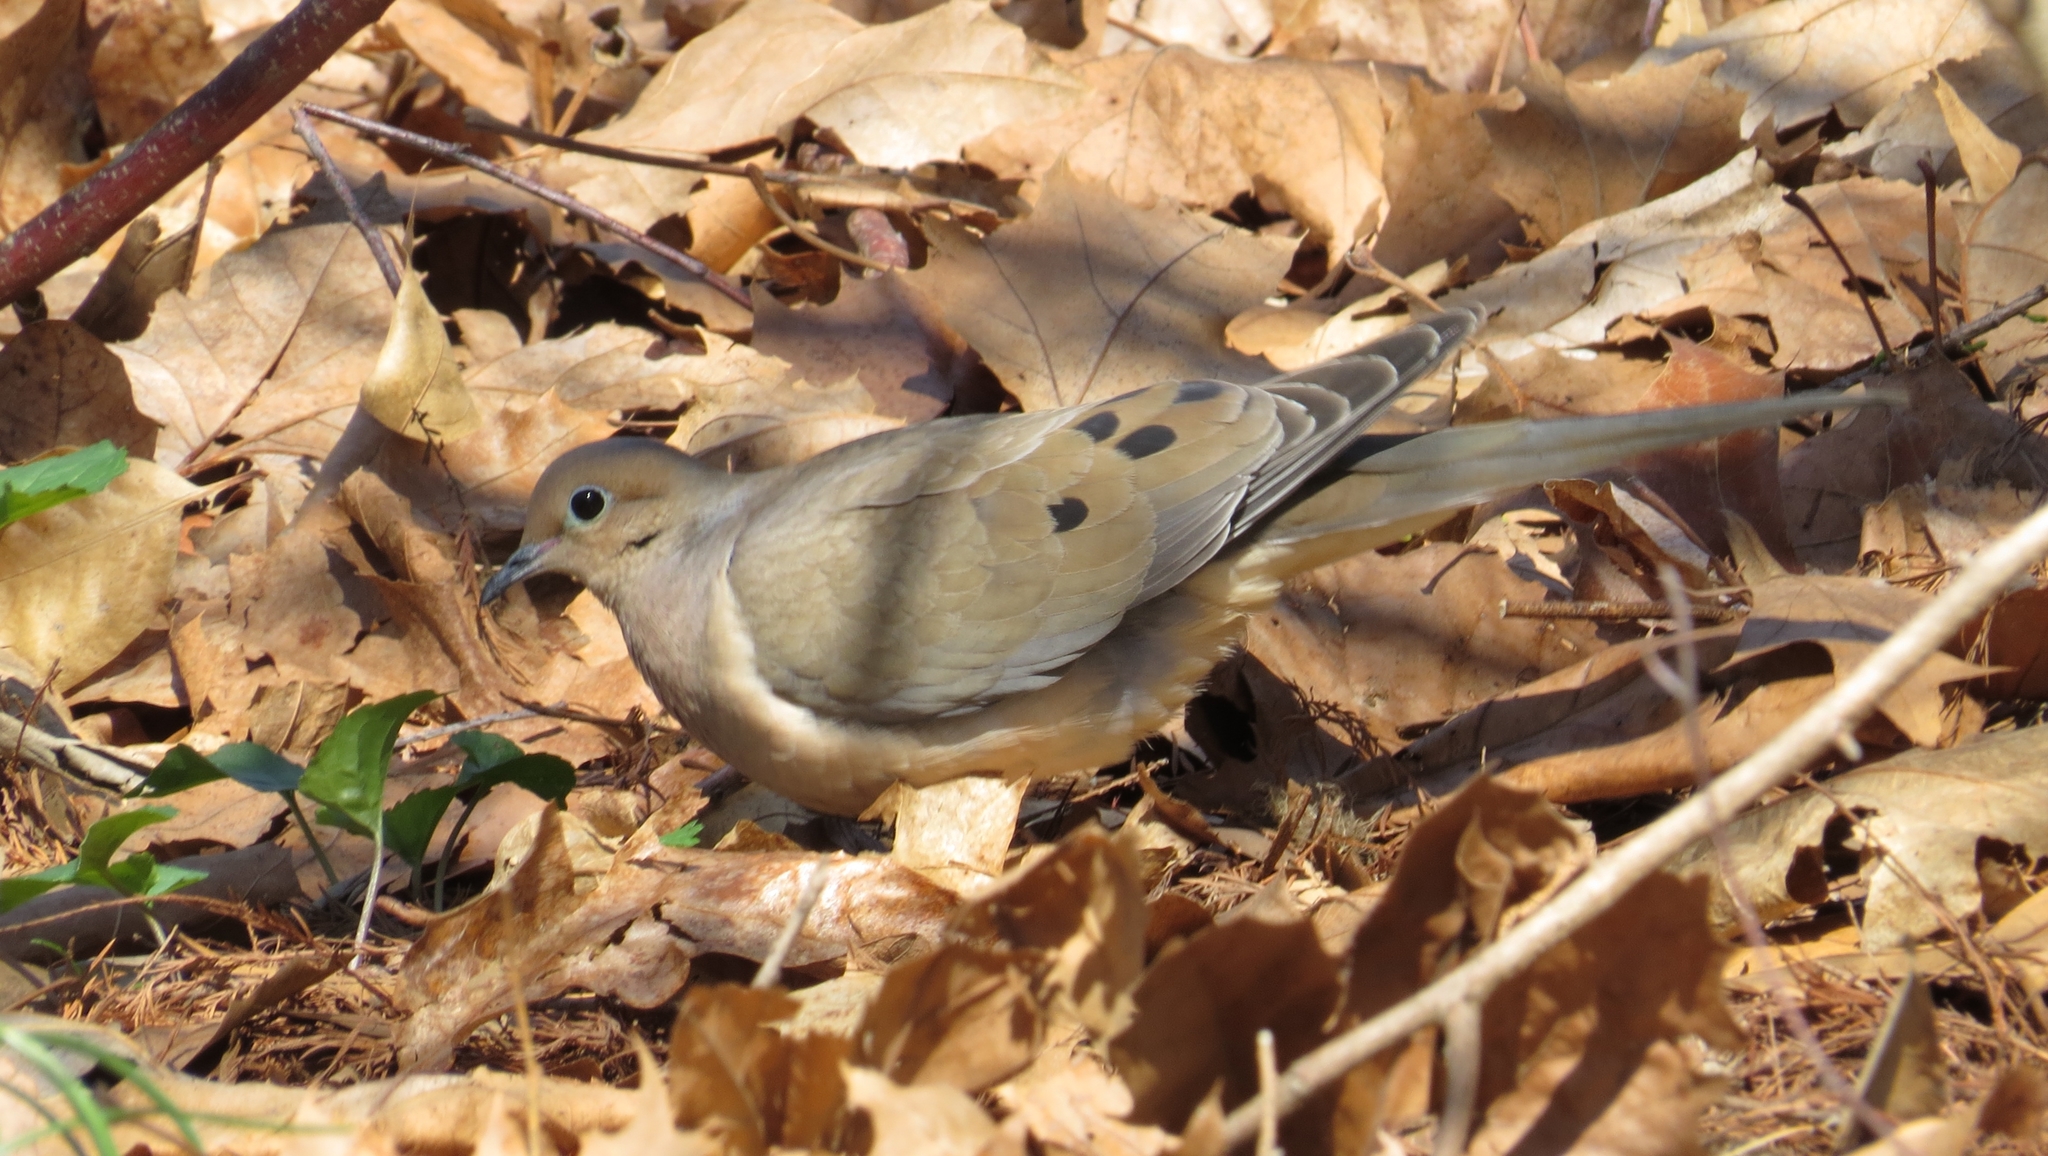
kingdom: Animalia
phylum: Chordata
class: Aves
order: Columbiformes
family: Columbidae
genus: Zenaida
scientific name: Zenaida macroura
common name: Mourning dove
